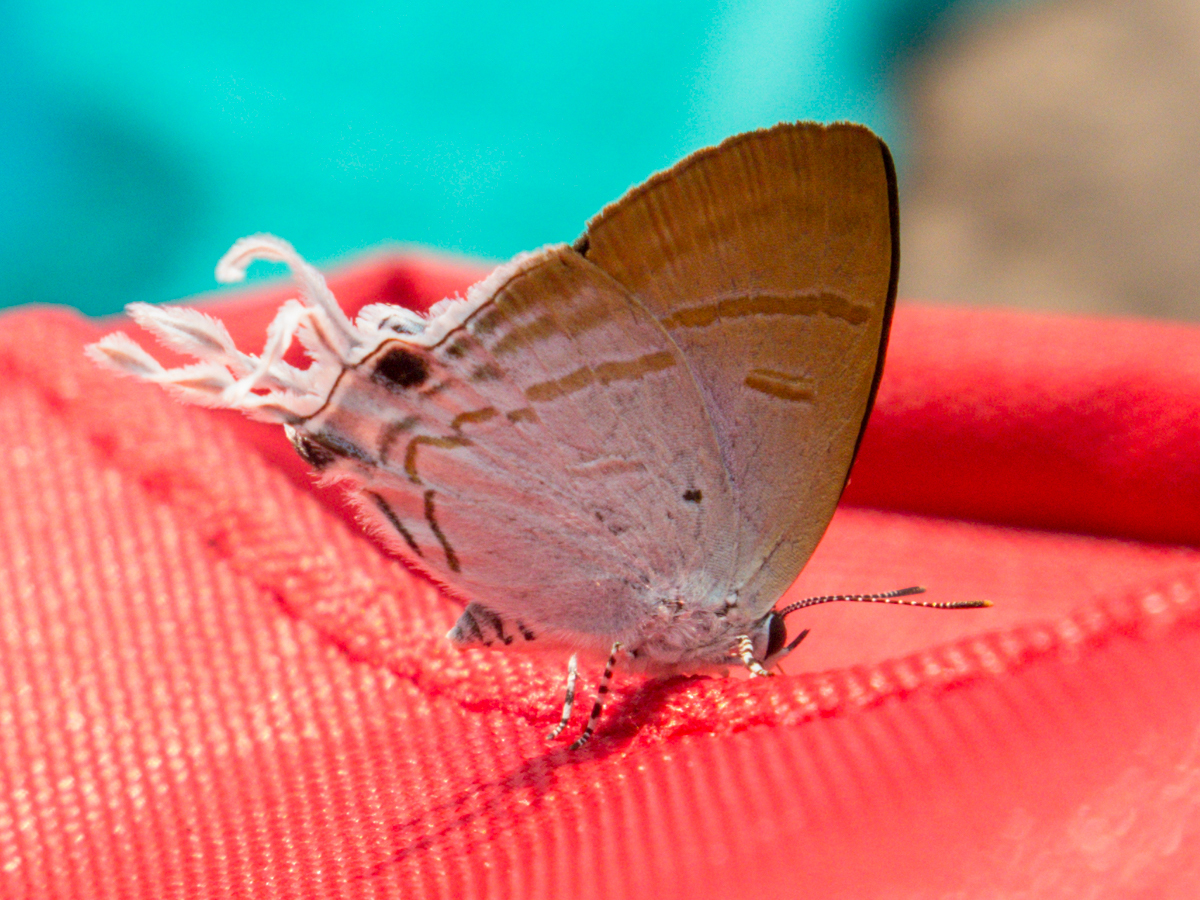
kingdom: Animalia
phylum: Arthropoda
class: Insecta
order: Lepidoptera
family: Lycaenidae
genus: Zeltus
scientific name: Zeltus amasa
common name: Fluffy tit
